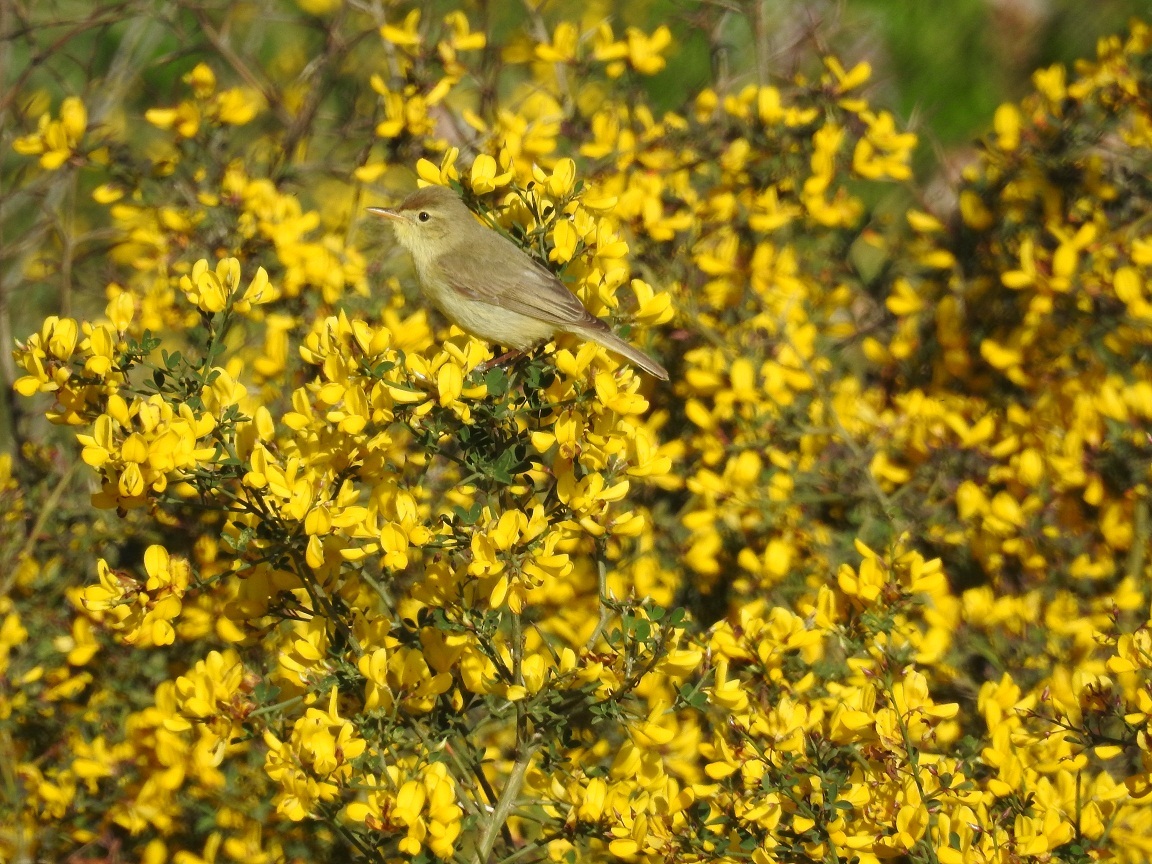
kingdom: Animalia
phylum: Chordata
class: Aves
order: Passeriformes
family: Acrocephalidae
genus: Hippolais
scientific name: Hippolais polyglotta
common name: Melodious warbler
